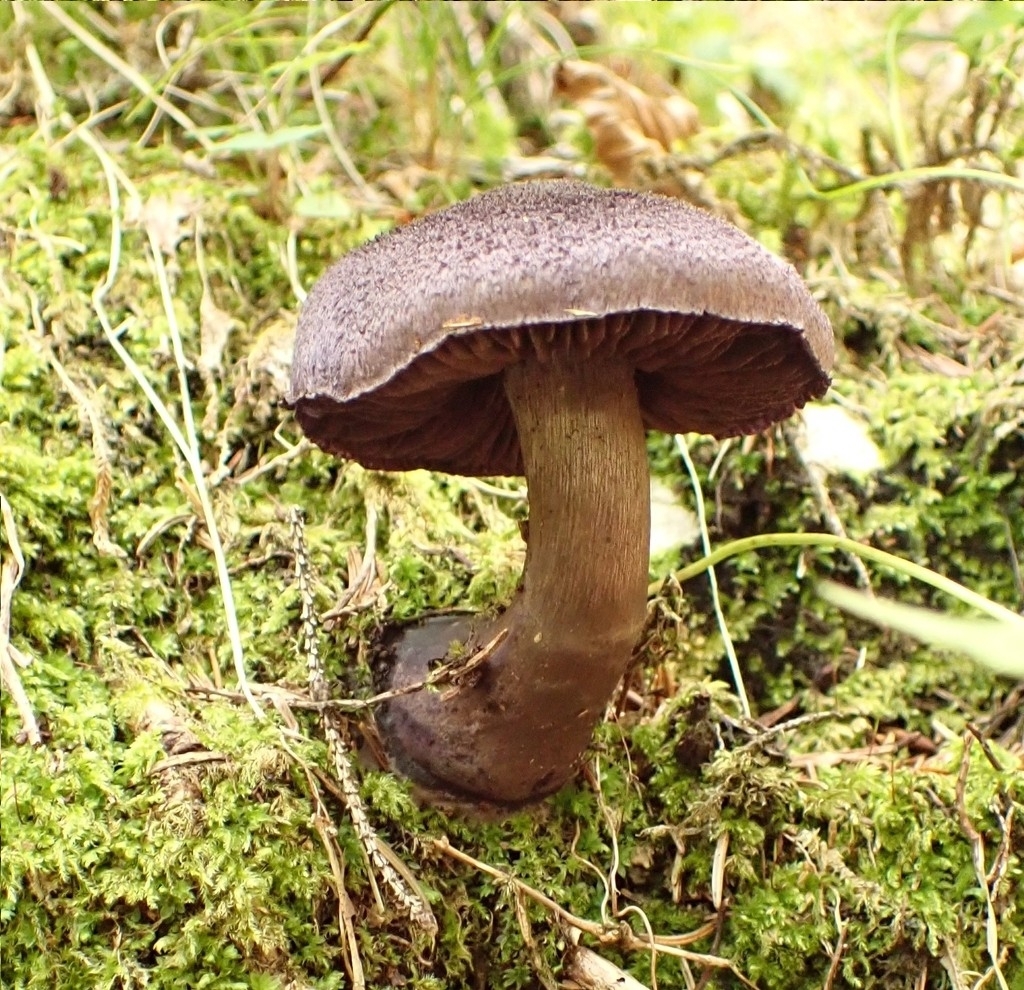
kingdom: Fungi
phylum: Basidiomycota
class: Agaricomycetes
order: Agaricales
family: Cortinariaceae
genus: Cortinarius
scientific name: Cortinarius violaceus
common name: Violet webcap
